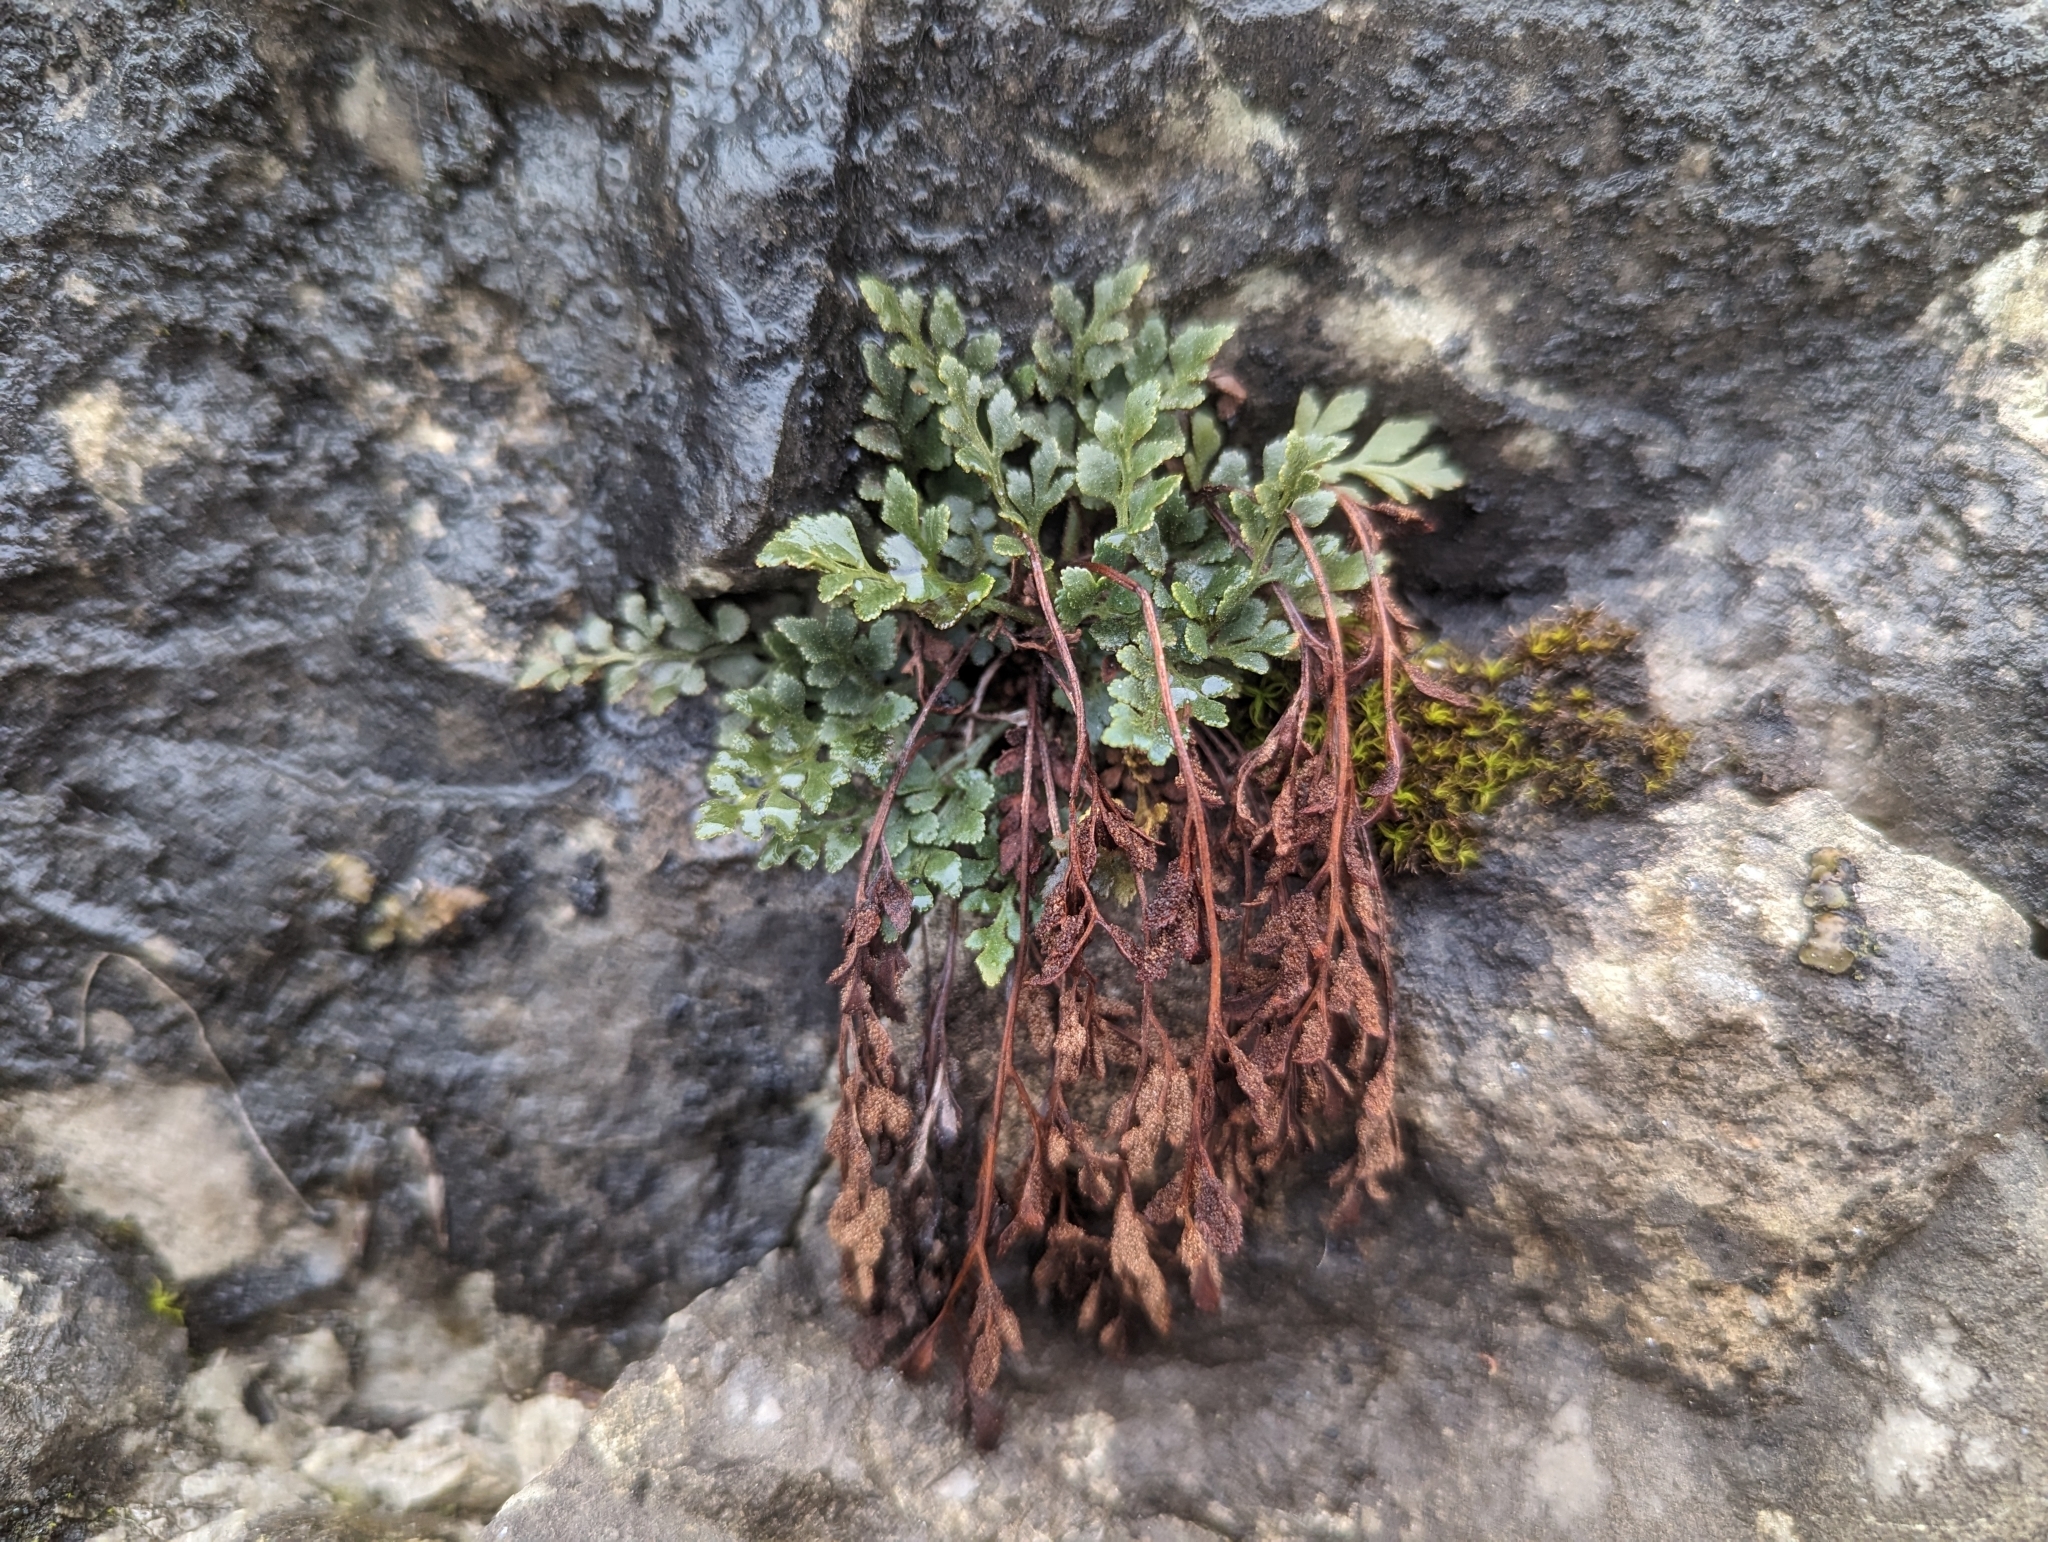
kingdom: Plantae
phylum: Tracheophyta
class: Polypodiopsida
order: Polypodiales
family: Aspleniaceae
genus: Asplenium
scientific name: Asplenium ruta-muraria
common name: Wall-rue
